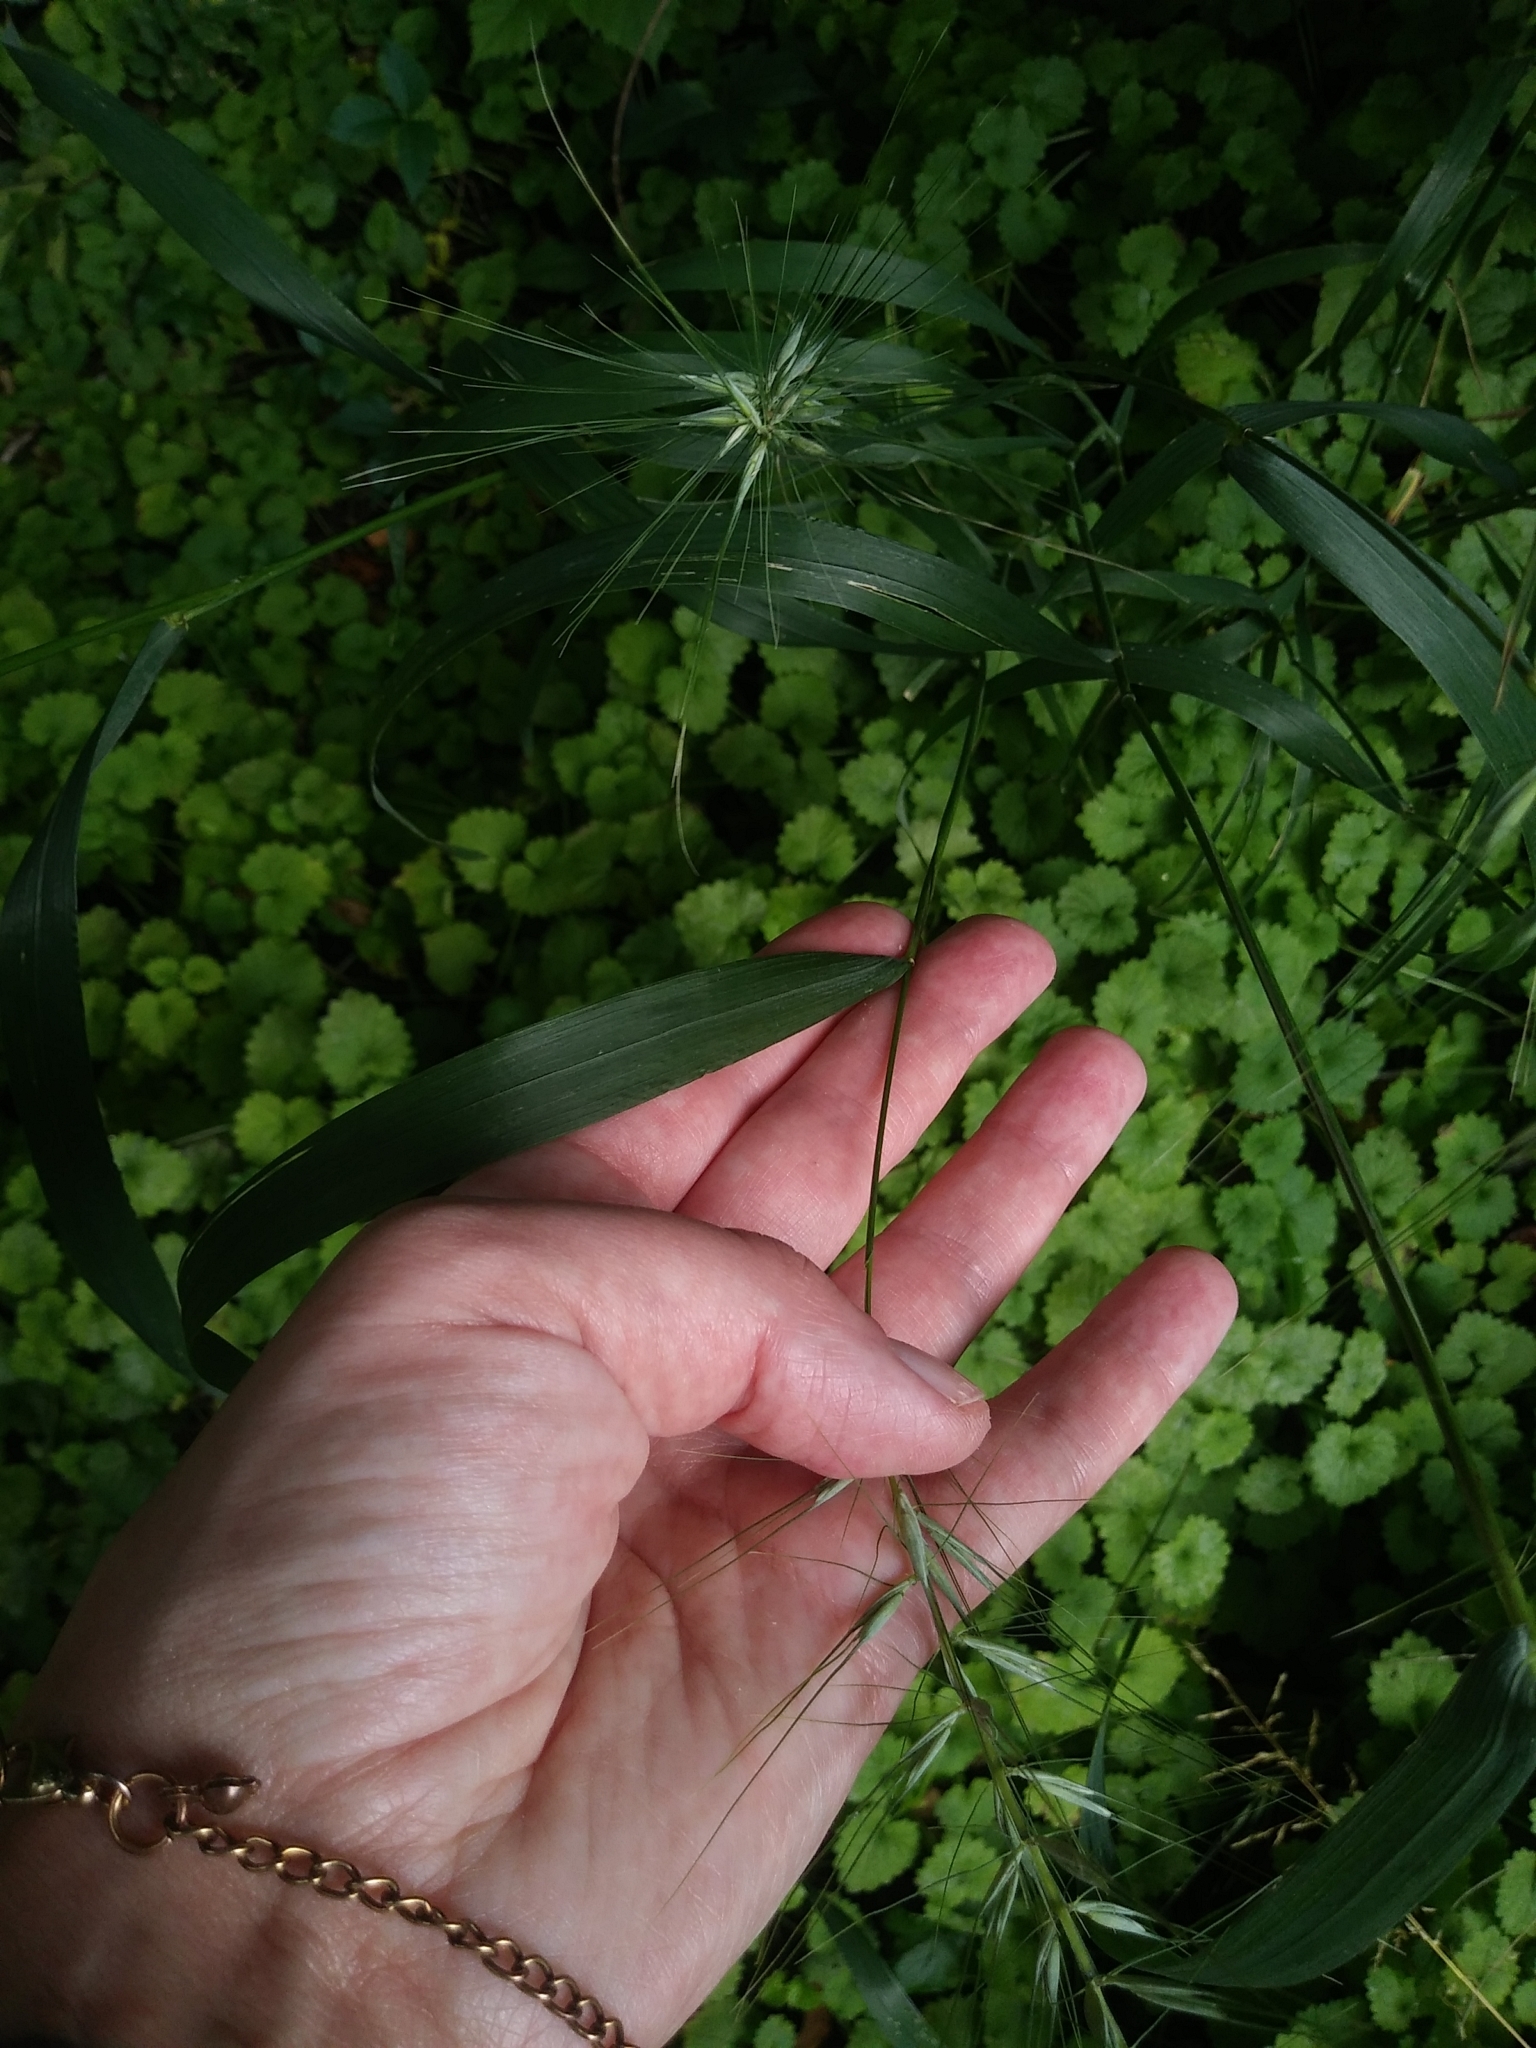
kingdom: Plantae
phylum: Tracheophyta
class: Magnoliopsida
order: Asterales
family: Asteraceae
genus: Smallanthus
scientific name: Smallanthus uvedalia
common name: Bear's-foot
